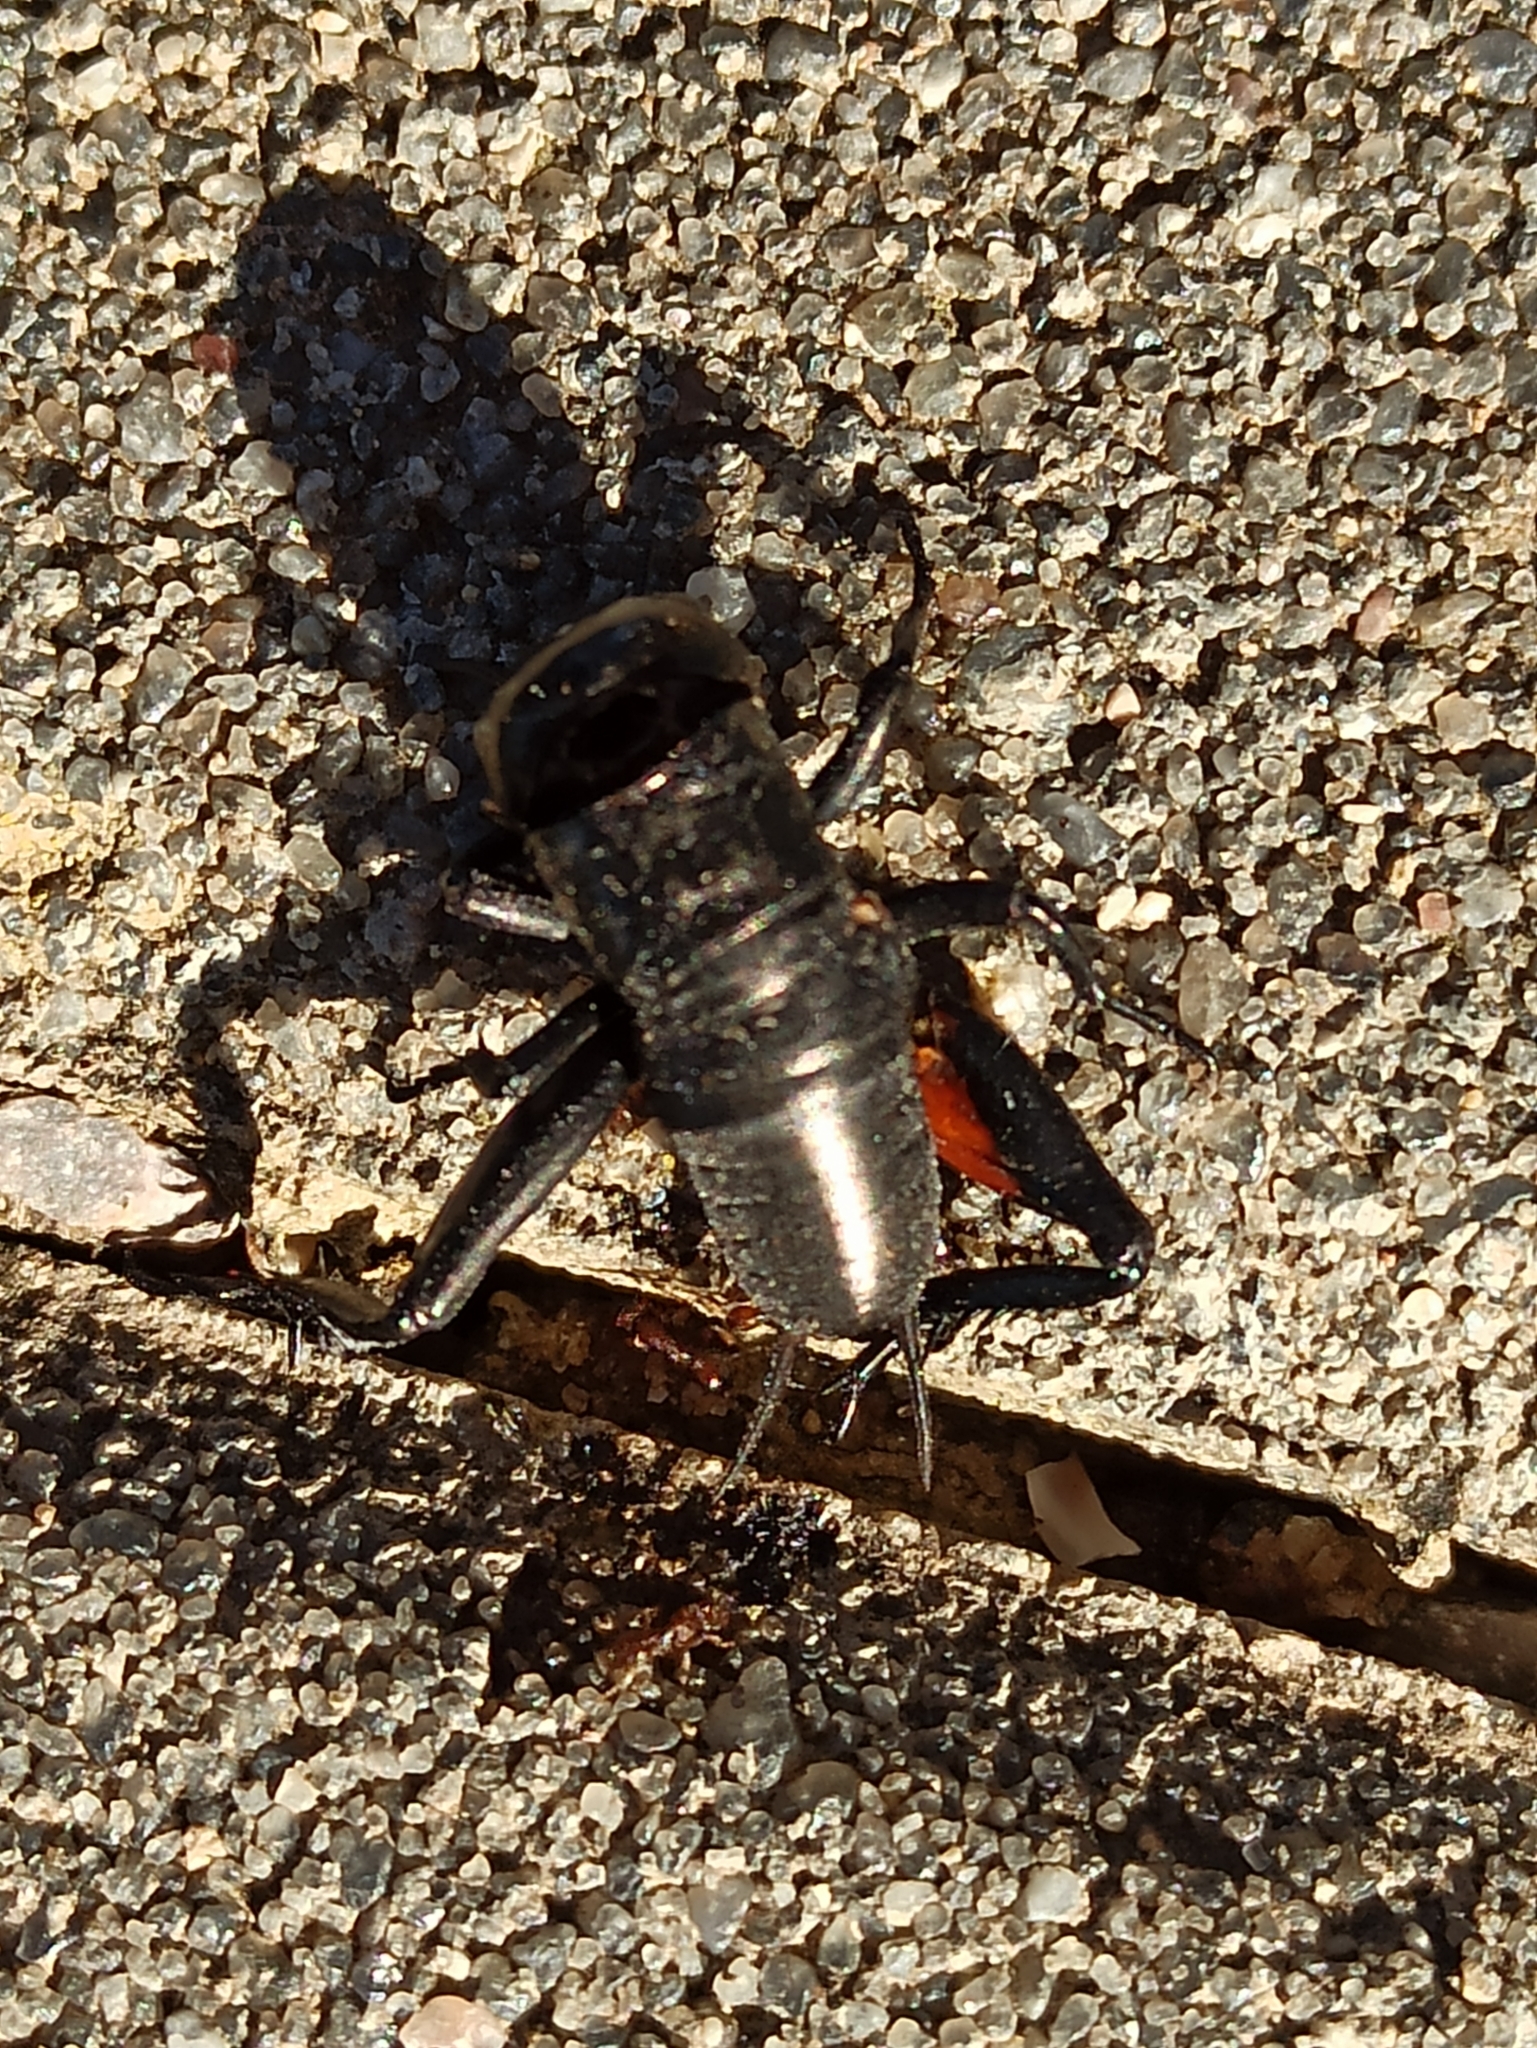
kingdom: Animalia
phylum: Arthropoda
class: Insecta
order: Orthoptera
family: Gryllidae
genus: Gryllus
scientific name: Gryllus campestris
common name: Field cricket
